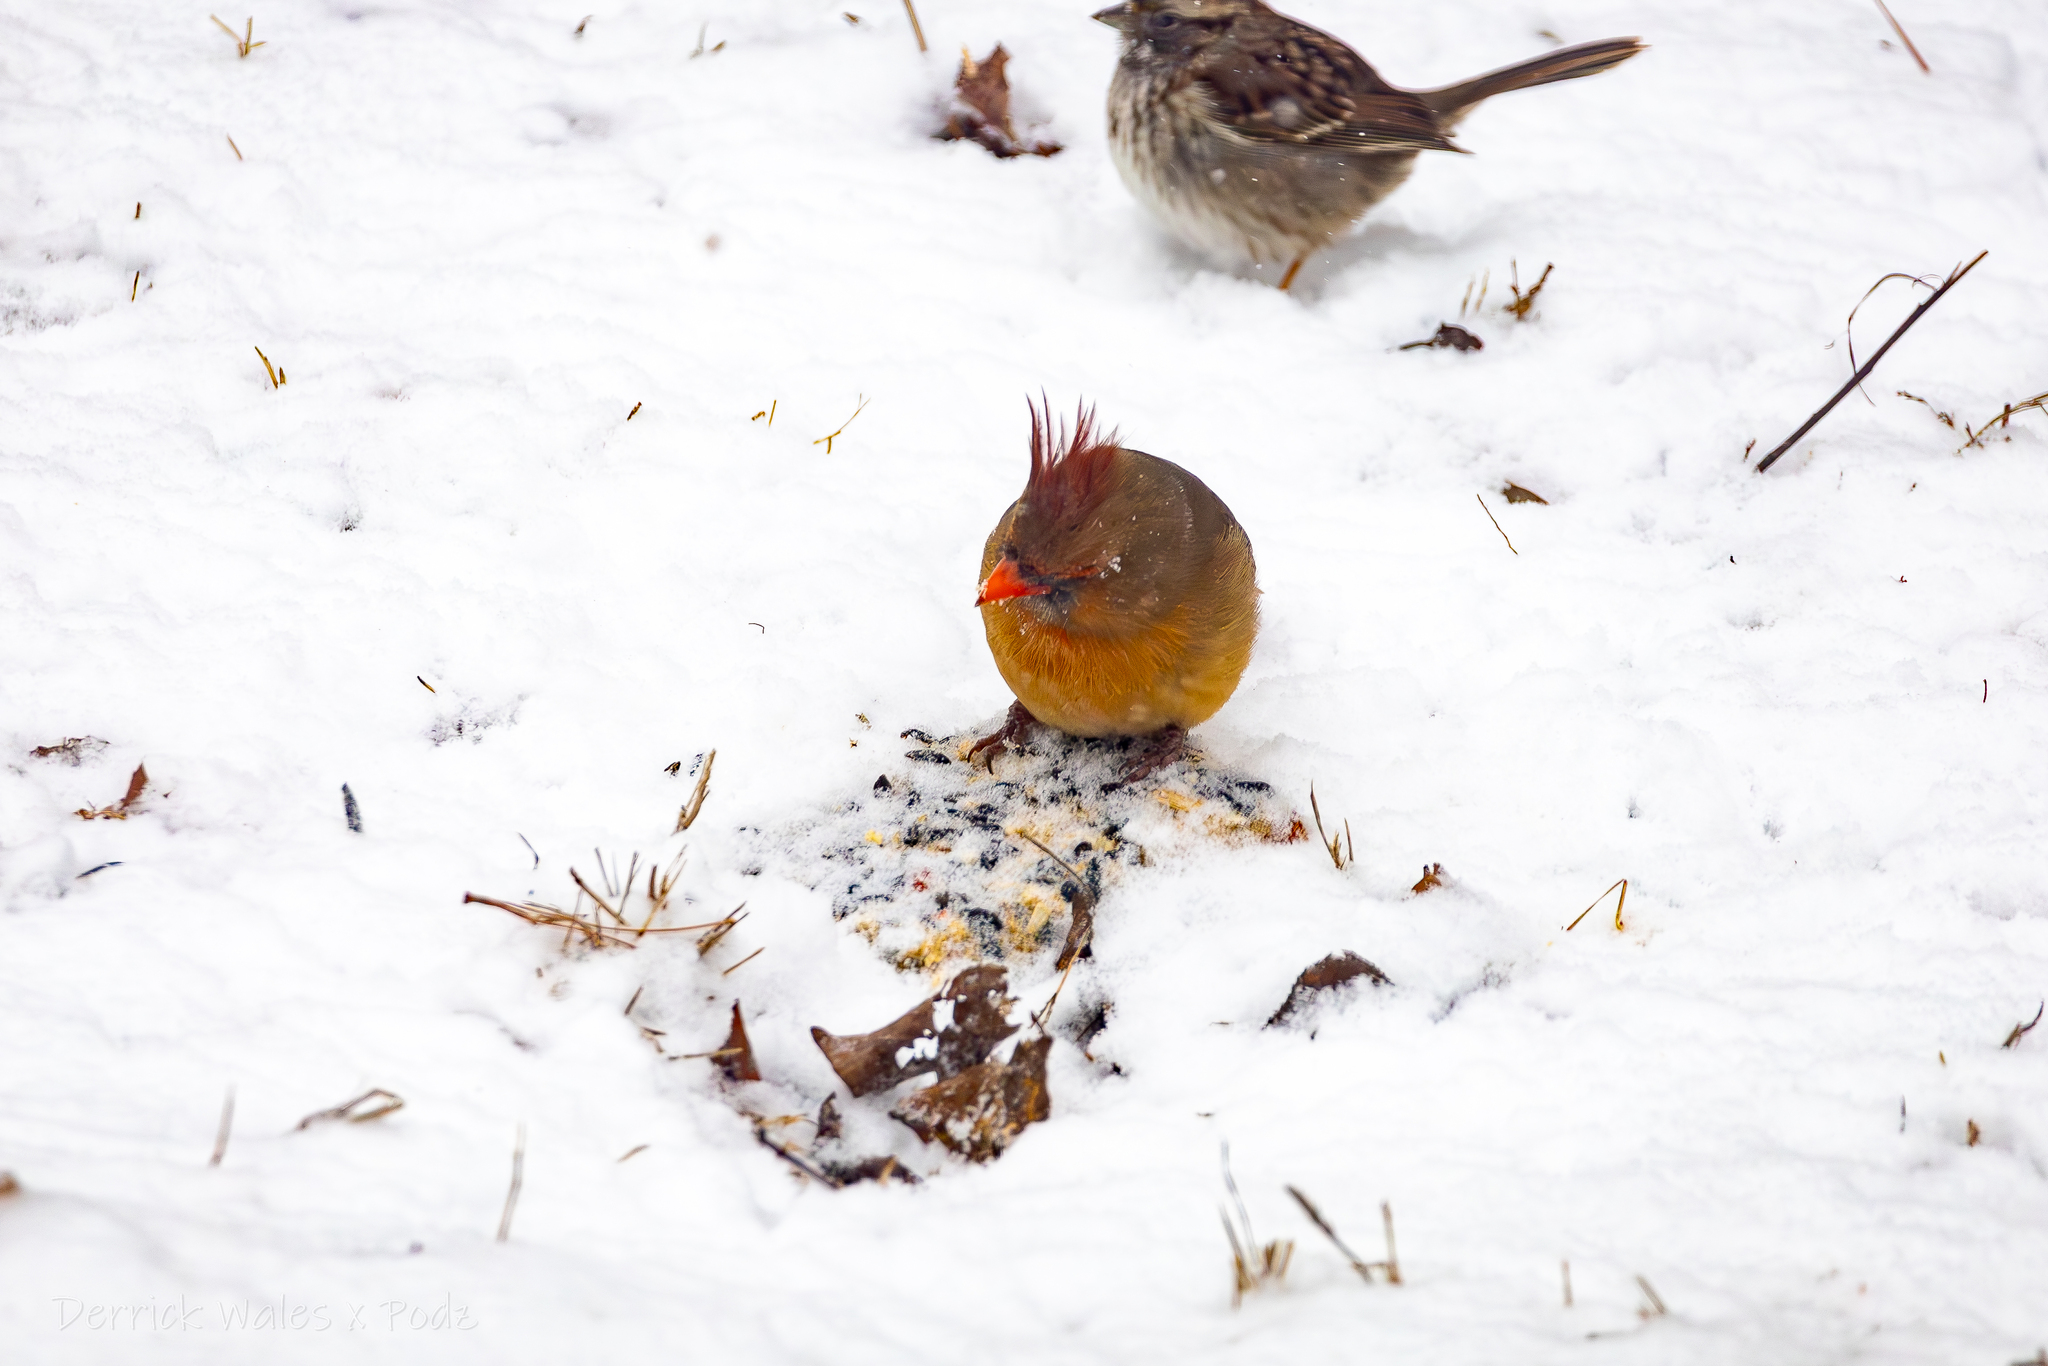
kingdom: Animalia
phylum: Chordata
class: Aves
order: Passeriformes
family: Cardinalidae
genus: Cardinalis
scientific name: Cardinalis cardinalis
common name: Northern cardinal
